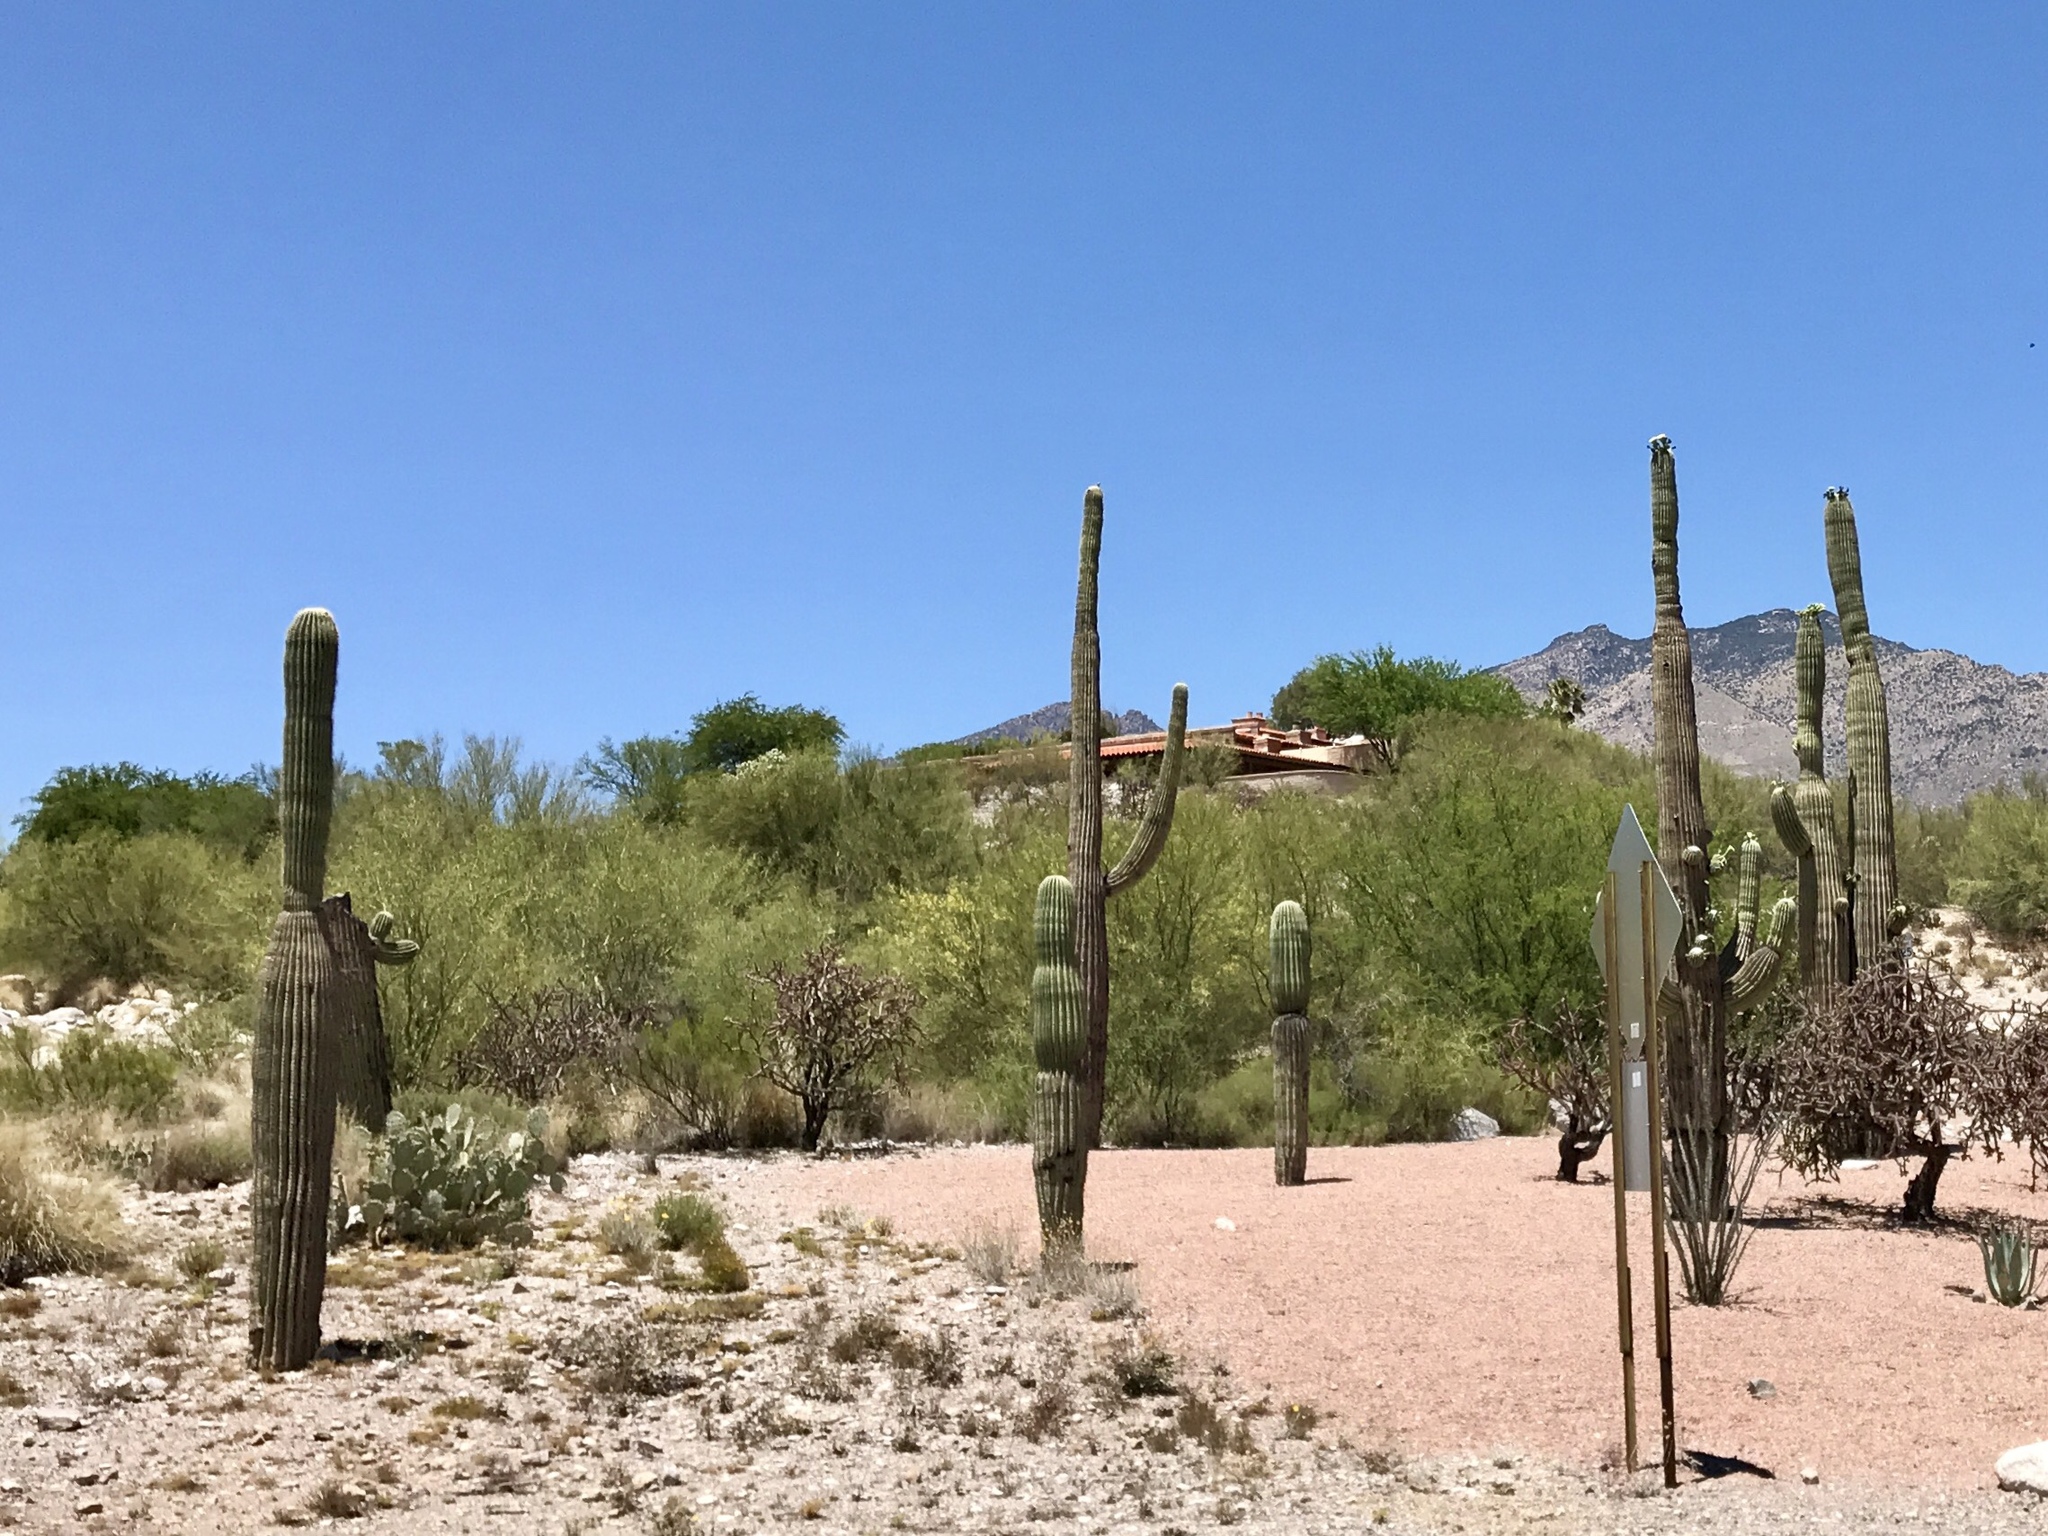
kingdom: Plantae
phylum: Tracheophyta
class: Magnoliopsida
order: Caryophyllales
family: Cactaceae
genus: Carnegiea
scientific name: Carnegiea gigantea
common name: Saguaro
